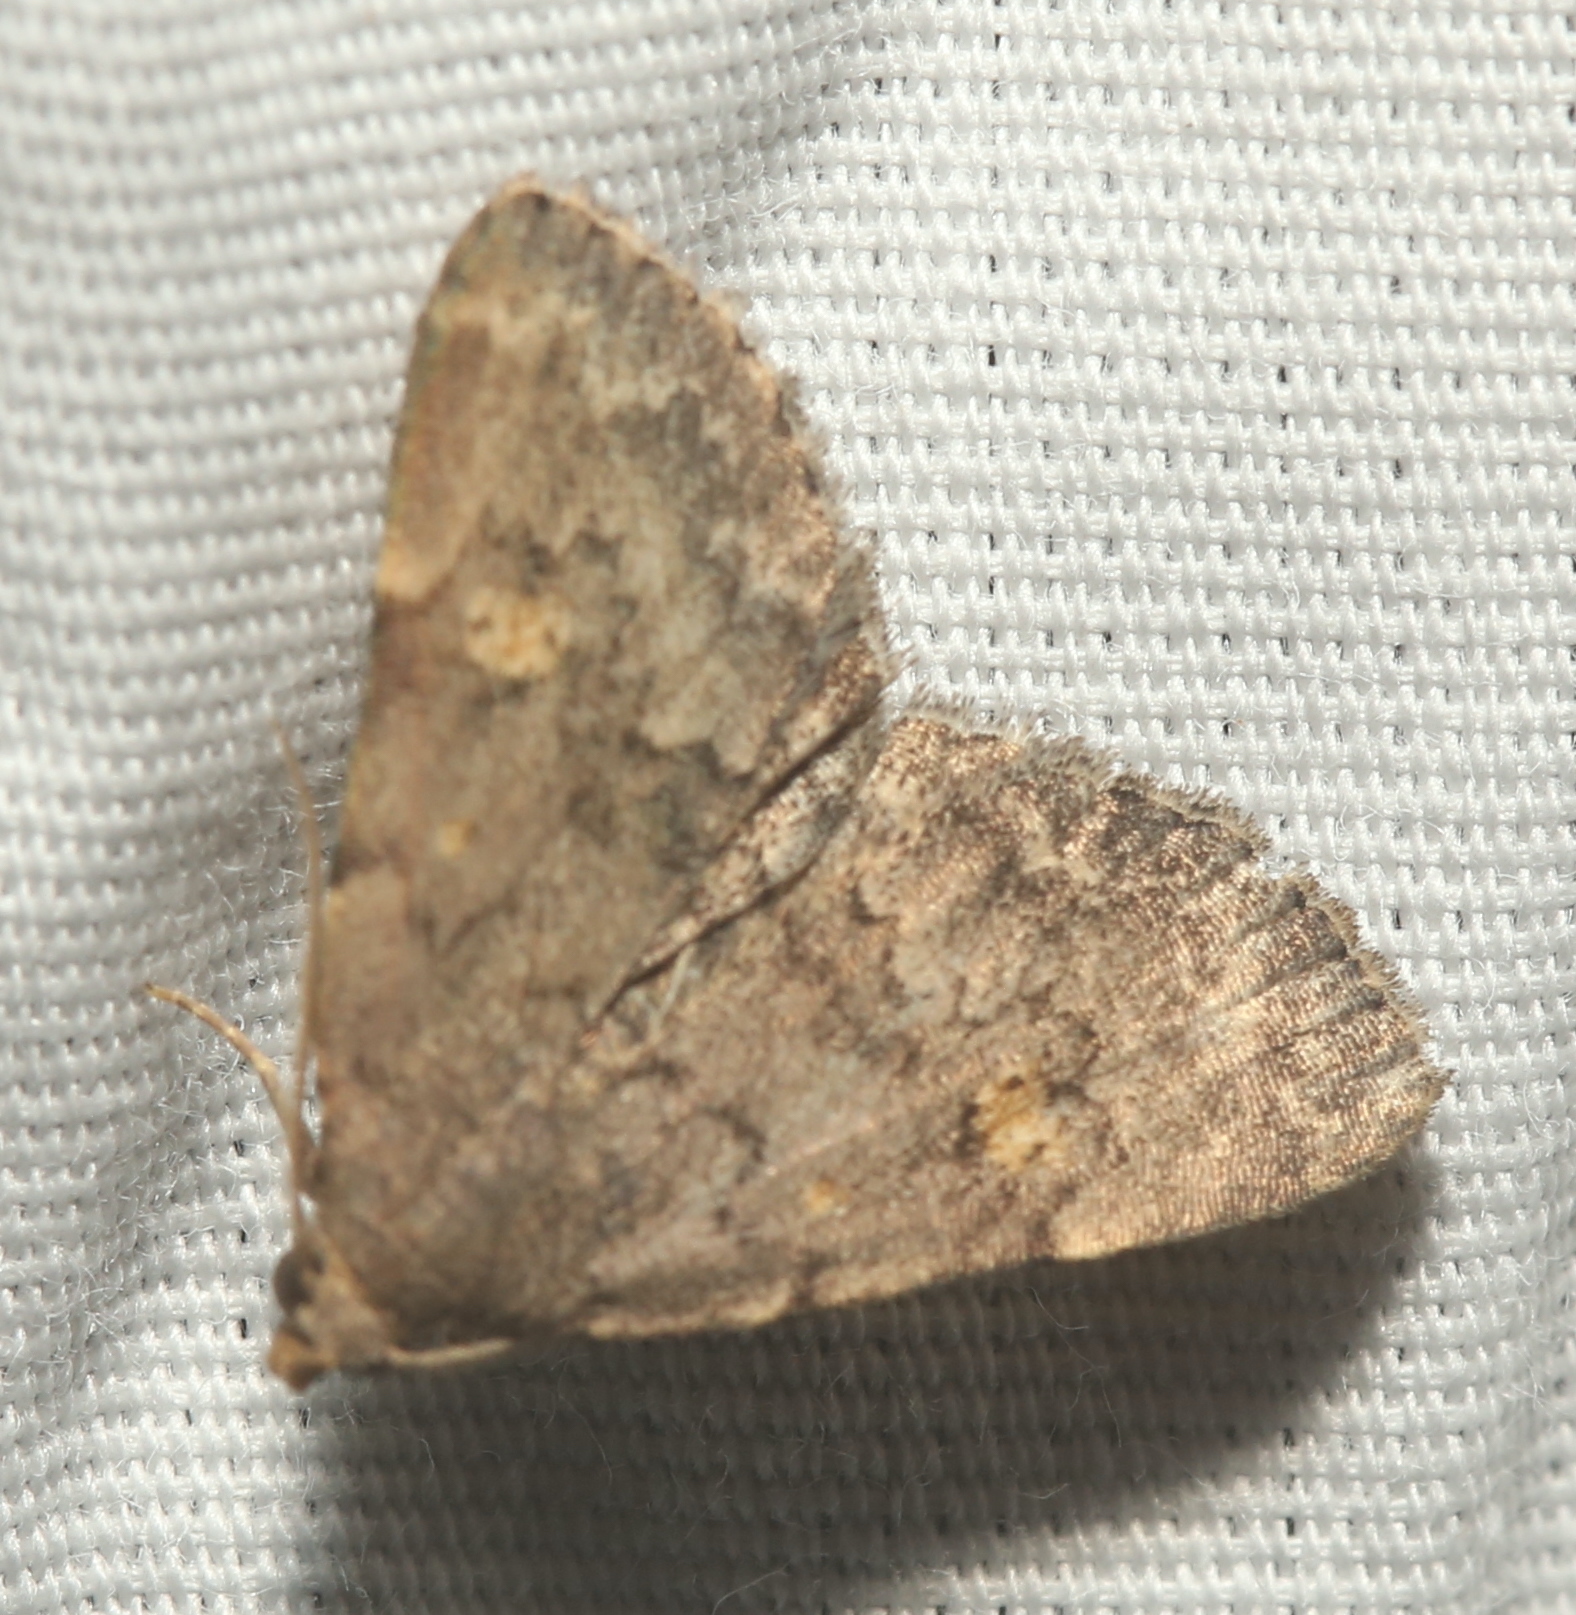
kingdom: Animalia
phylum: Arthropoda
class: Insecta
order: Lepidoptera
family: Erebidae
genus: Idia
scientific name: Idia aemula
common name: Common idia moth
